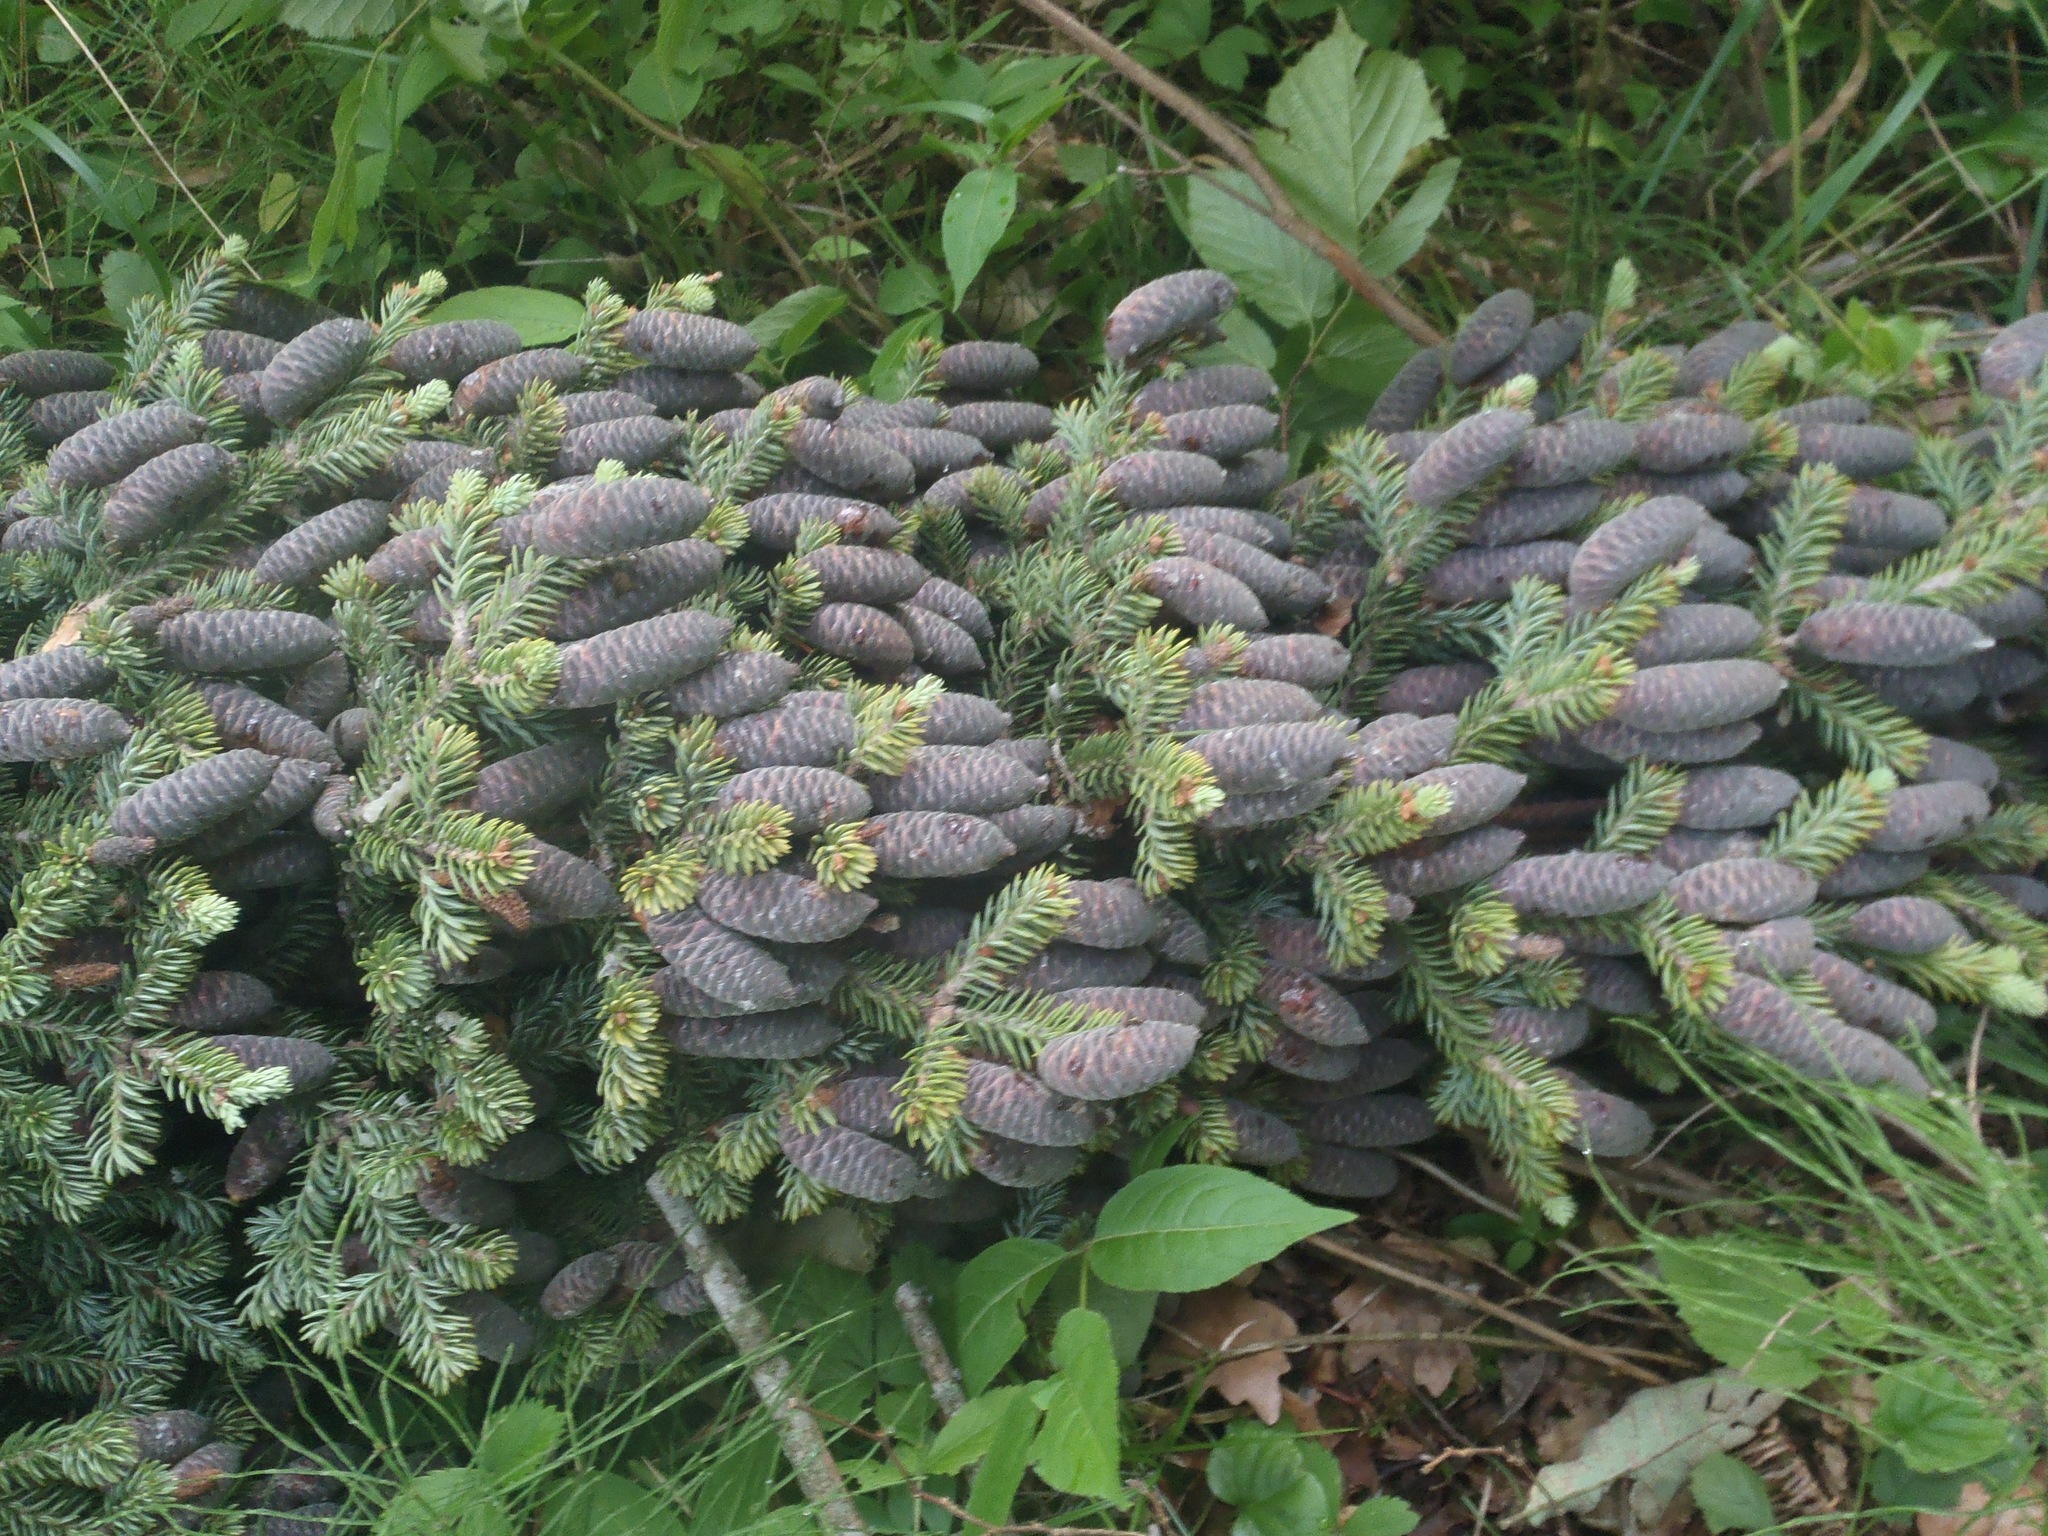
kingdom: Plantae
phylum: Tracheophyta
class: Pinopsida
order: Pinales
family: Pinaceae
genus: Abies
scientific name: Abies balsamea
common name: Balsam fir
